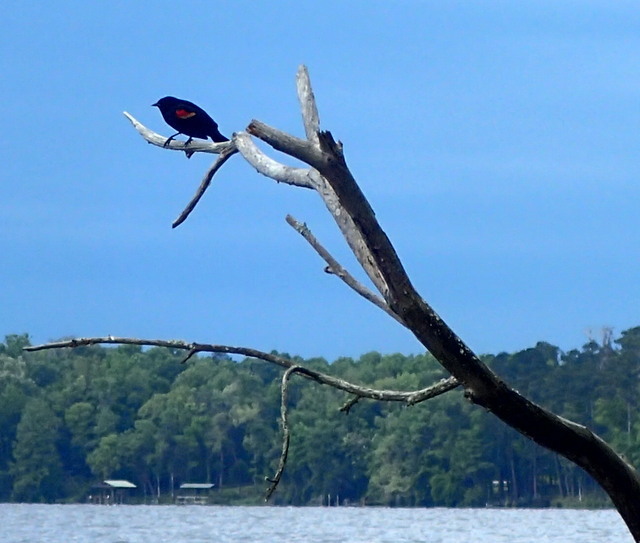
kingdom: Animalia
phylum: Chordata
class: Aves
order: Passeriformes
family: Icteridae
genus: Agelaius
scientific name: Agelaius phoeniceus
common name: Red-winged blackbird
